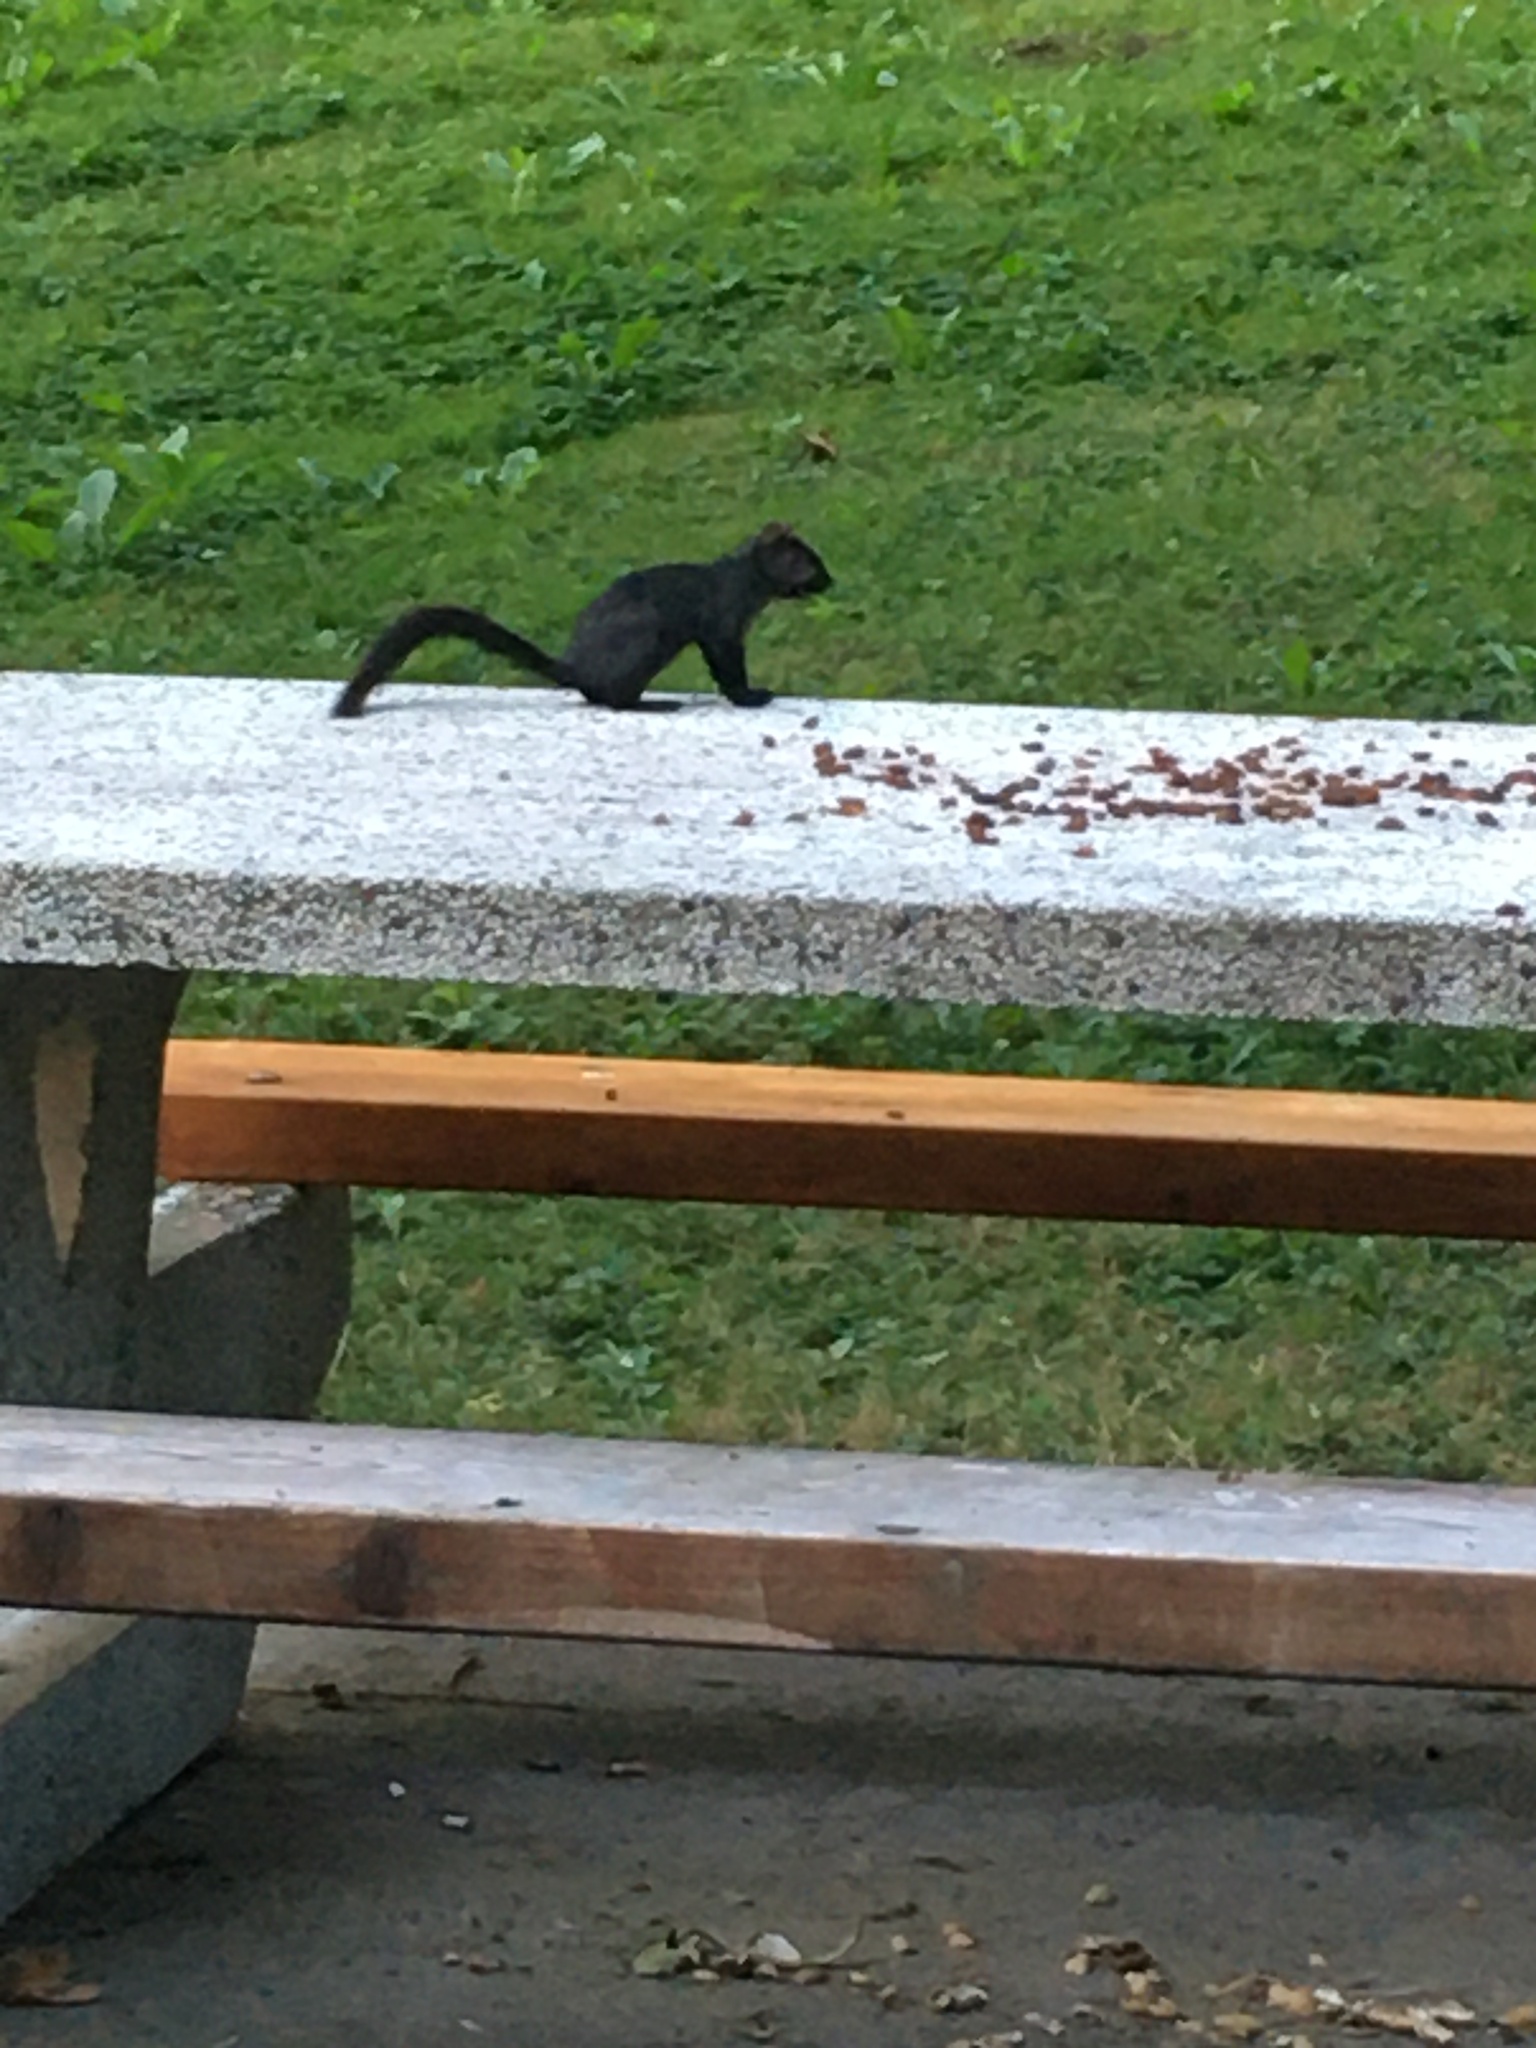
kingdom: Animalia
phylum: Chordata
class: Mammalia
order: Rodentia
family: Sciuridae
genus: Sciurus
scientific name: Sciurus carolinensis
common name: Eastern gray squirrel
